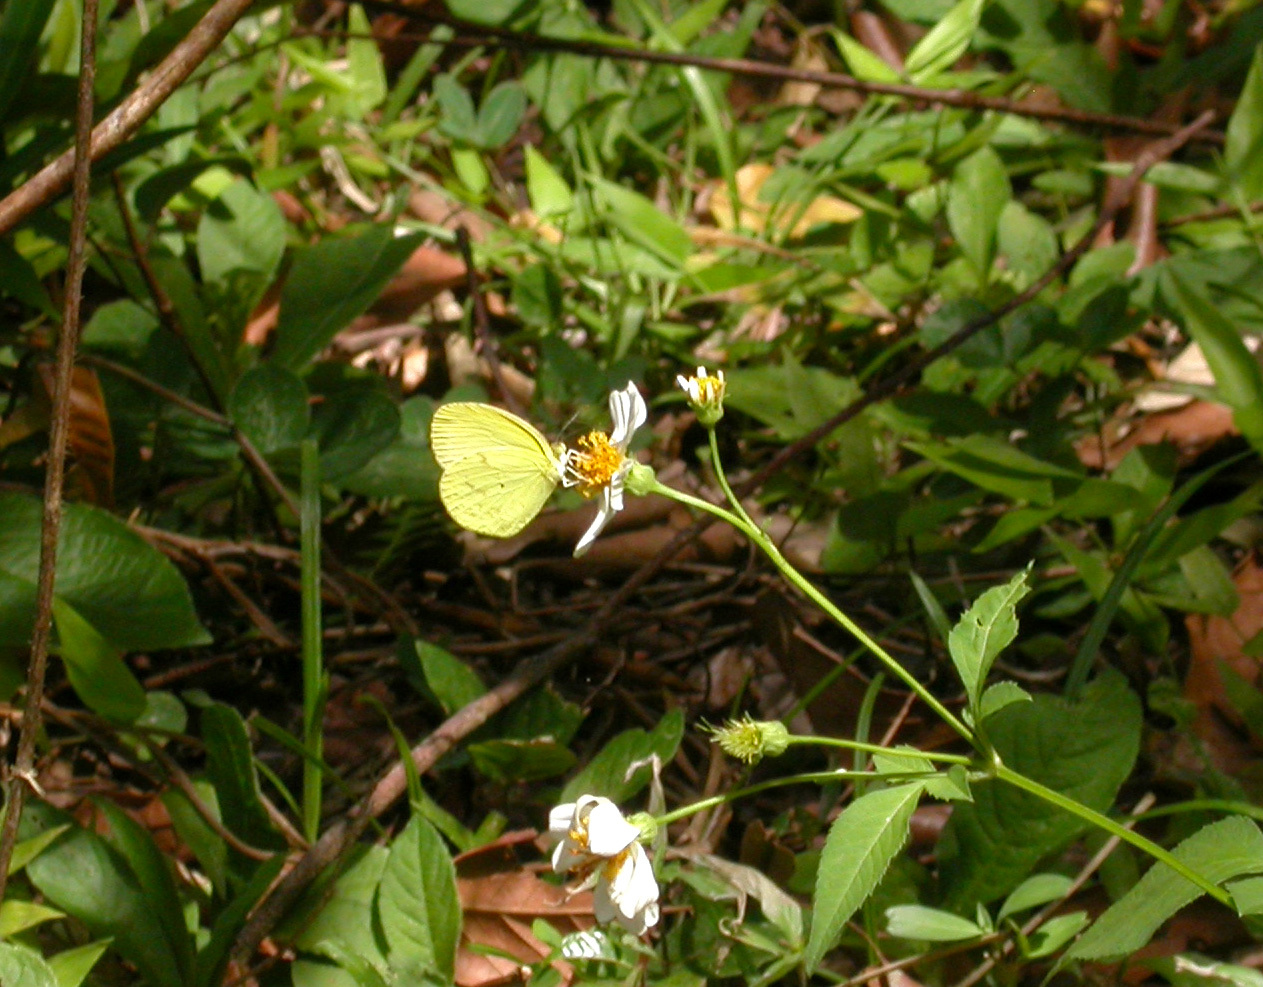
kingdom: Animalia
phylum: Arthropoda
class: Insecta
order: Lepidoptera
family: Pieridae
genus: Pyrisitia
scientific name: Pyrisitia leuce
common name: Hall's sulfur
